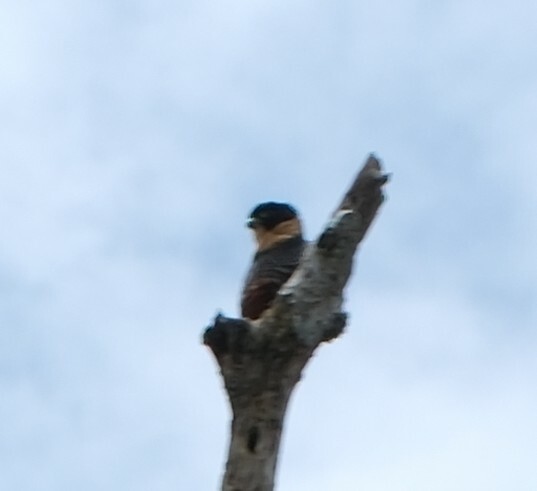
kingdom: Animalia
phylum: Chordata
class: Aves
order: Falconiformes
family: Falconidae
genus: Falco
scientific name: Falco rufigularis
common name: Bat falcon
